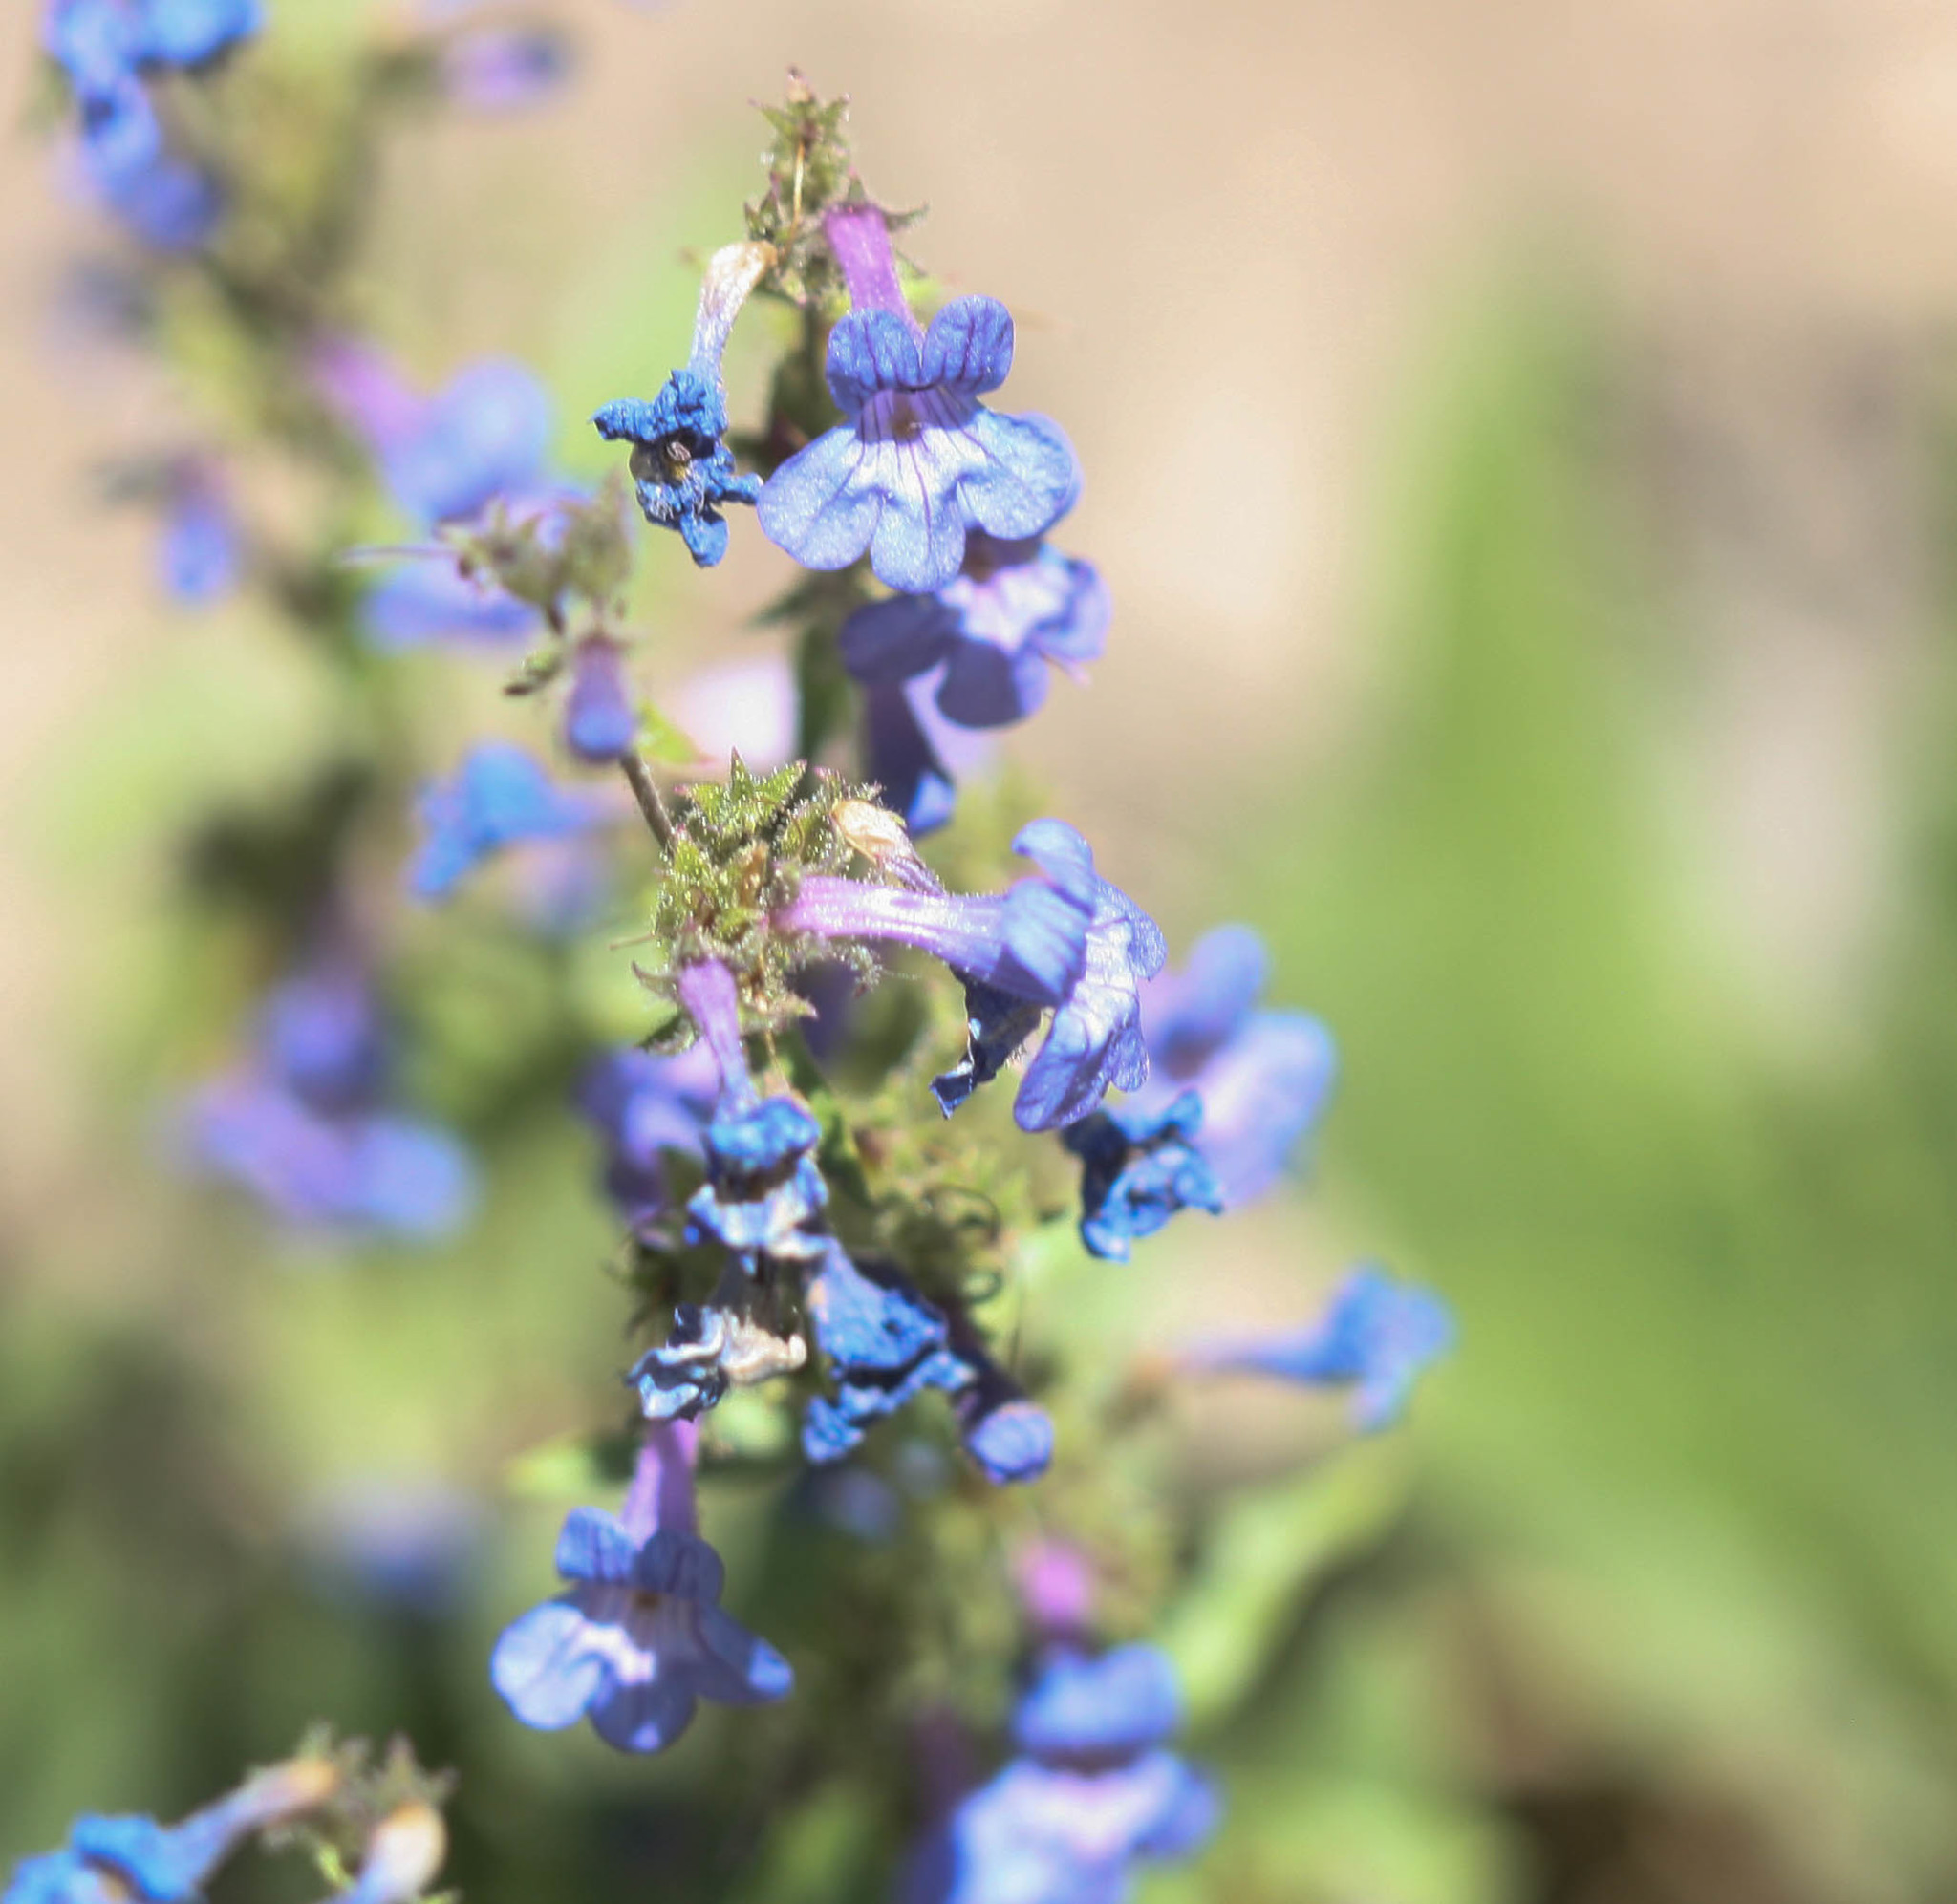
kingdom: Plantae
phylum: Tracheophyta
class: Magnoliopsida
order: Lamiales
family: Plantaginaceae
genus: Penstemon
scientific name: Penstemon humilis
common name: Low penstemon
